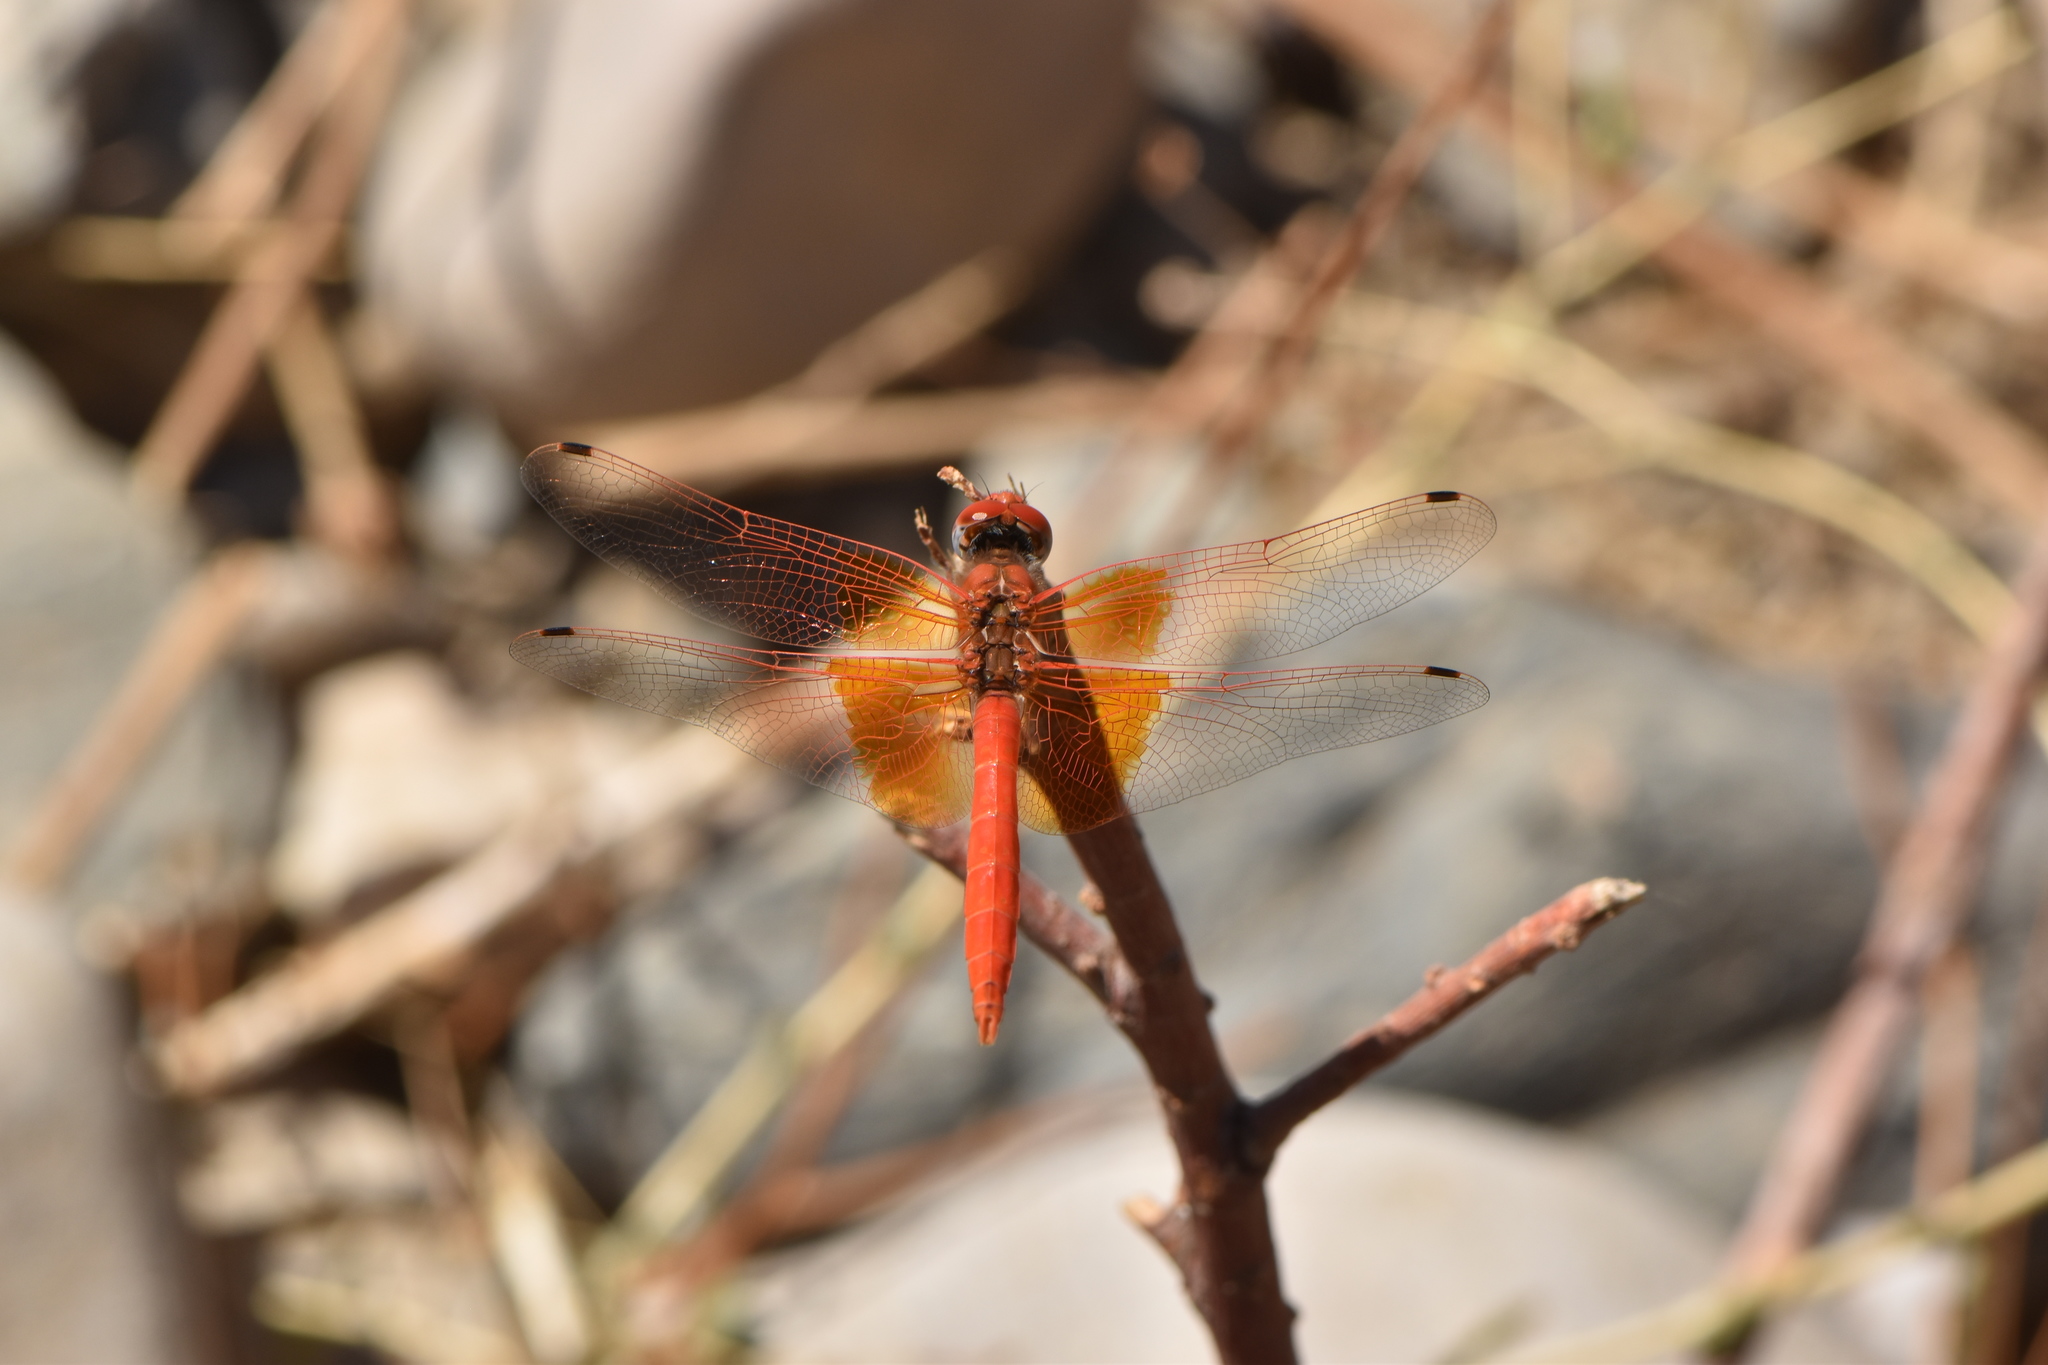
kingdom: Animalia
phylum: Arthropoda
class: Insecta
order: Odonata
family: Libellulidae
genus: Trithemis
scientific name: Trithemis kirbyi
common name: Kirby's dropwing
